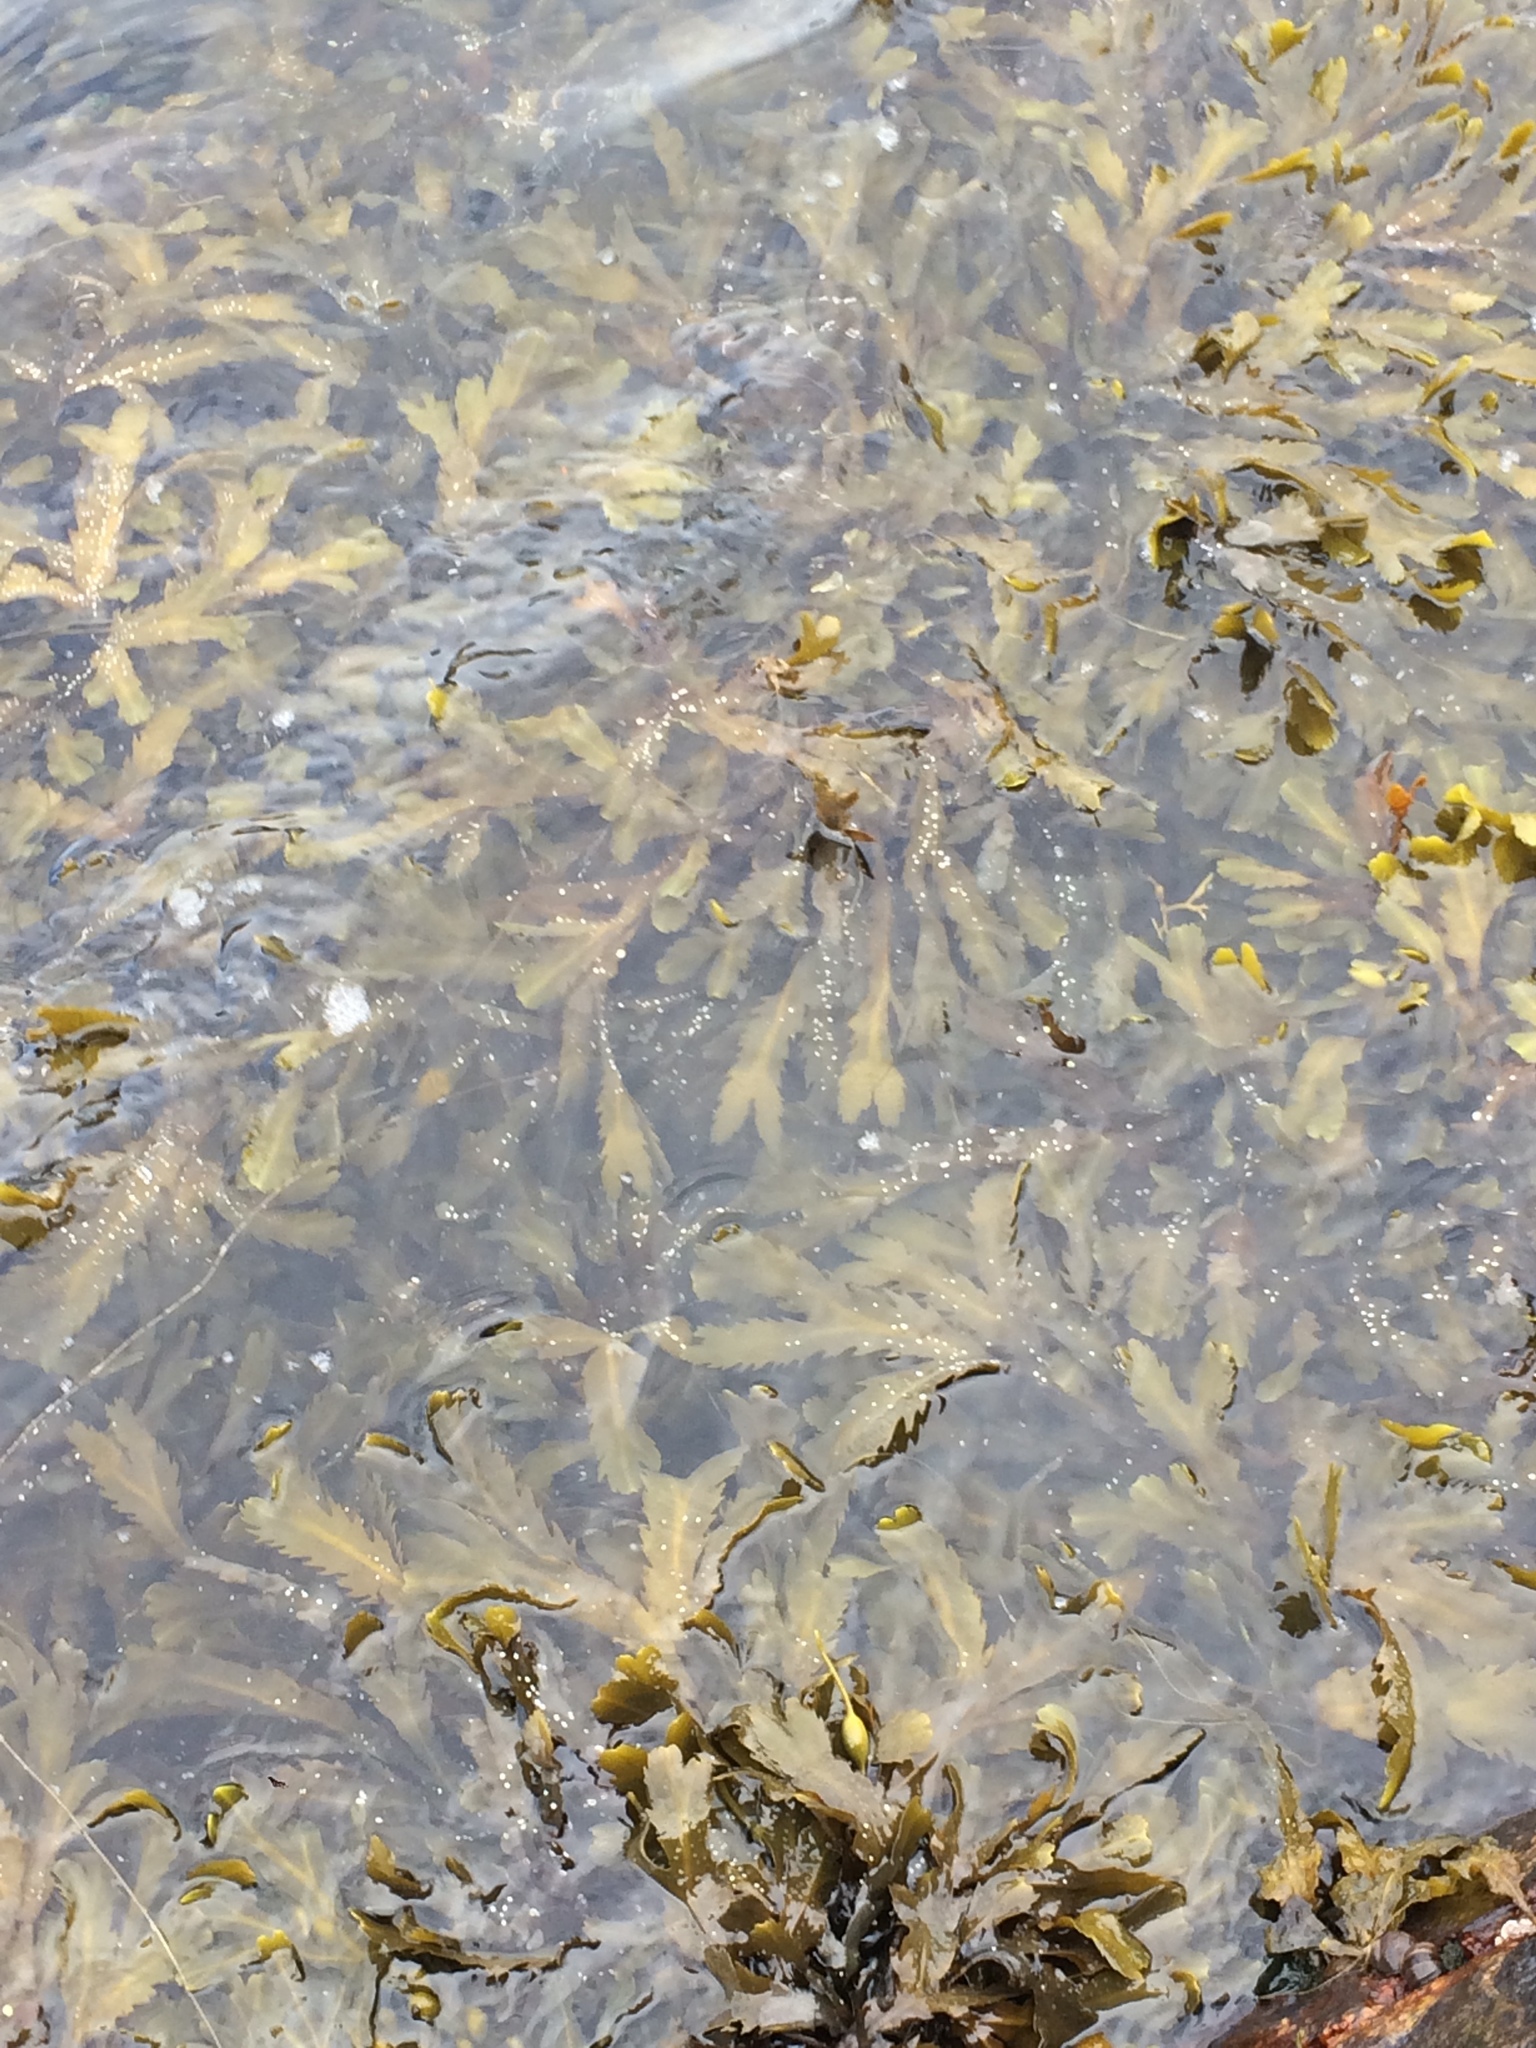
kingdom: Chromista
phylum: Ochrophyta
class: Phaeophyceae
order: Fucales
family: Fucaceae
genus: Fucus
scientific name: Fucus serratus
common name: Toothed wrack
